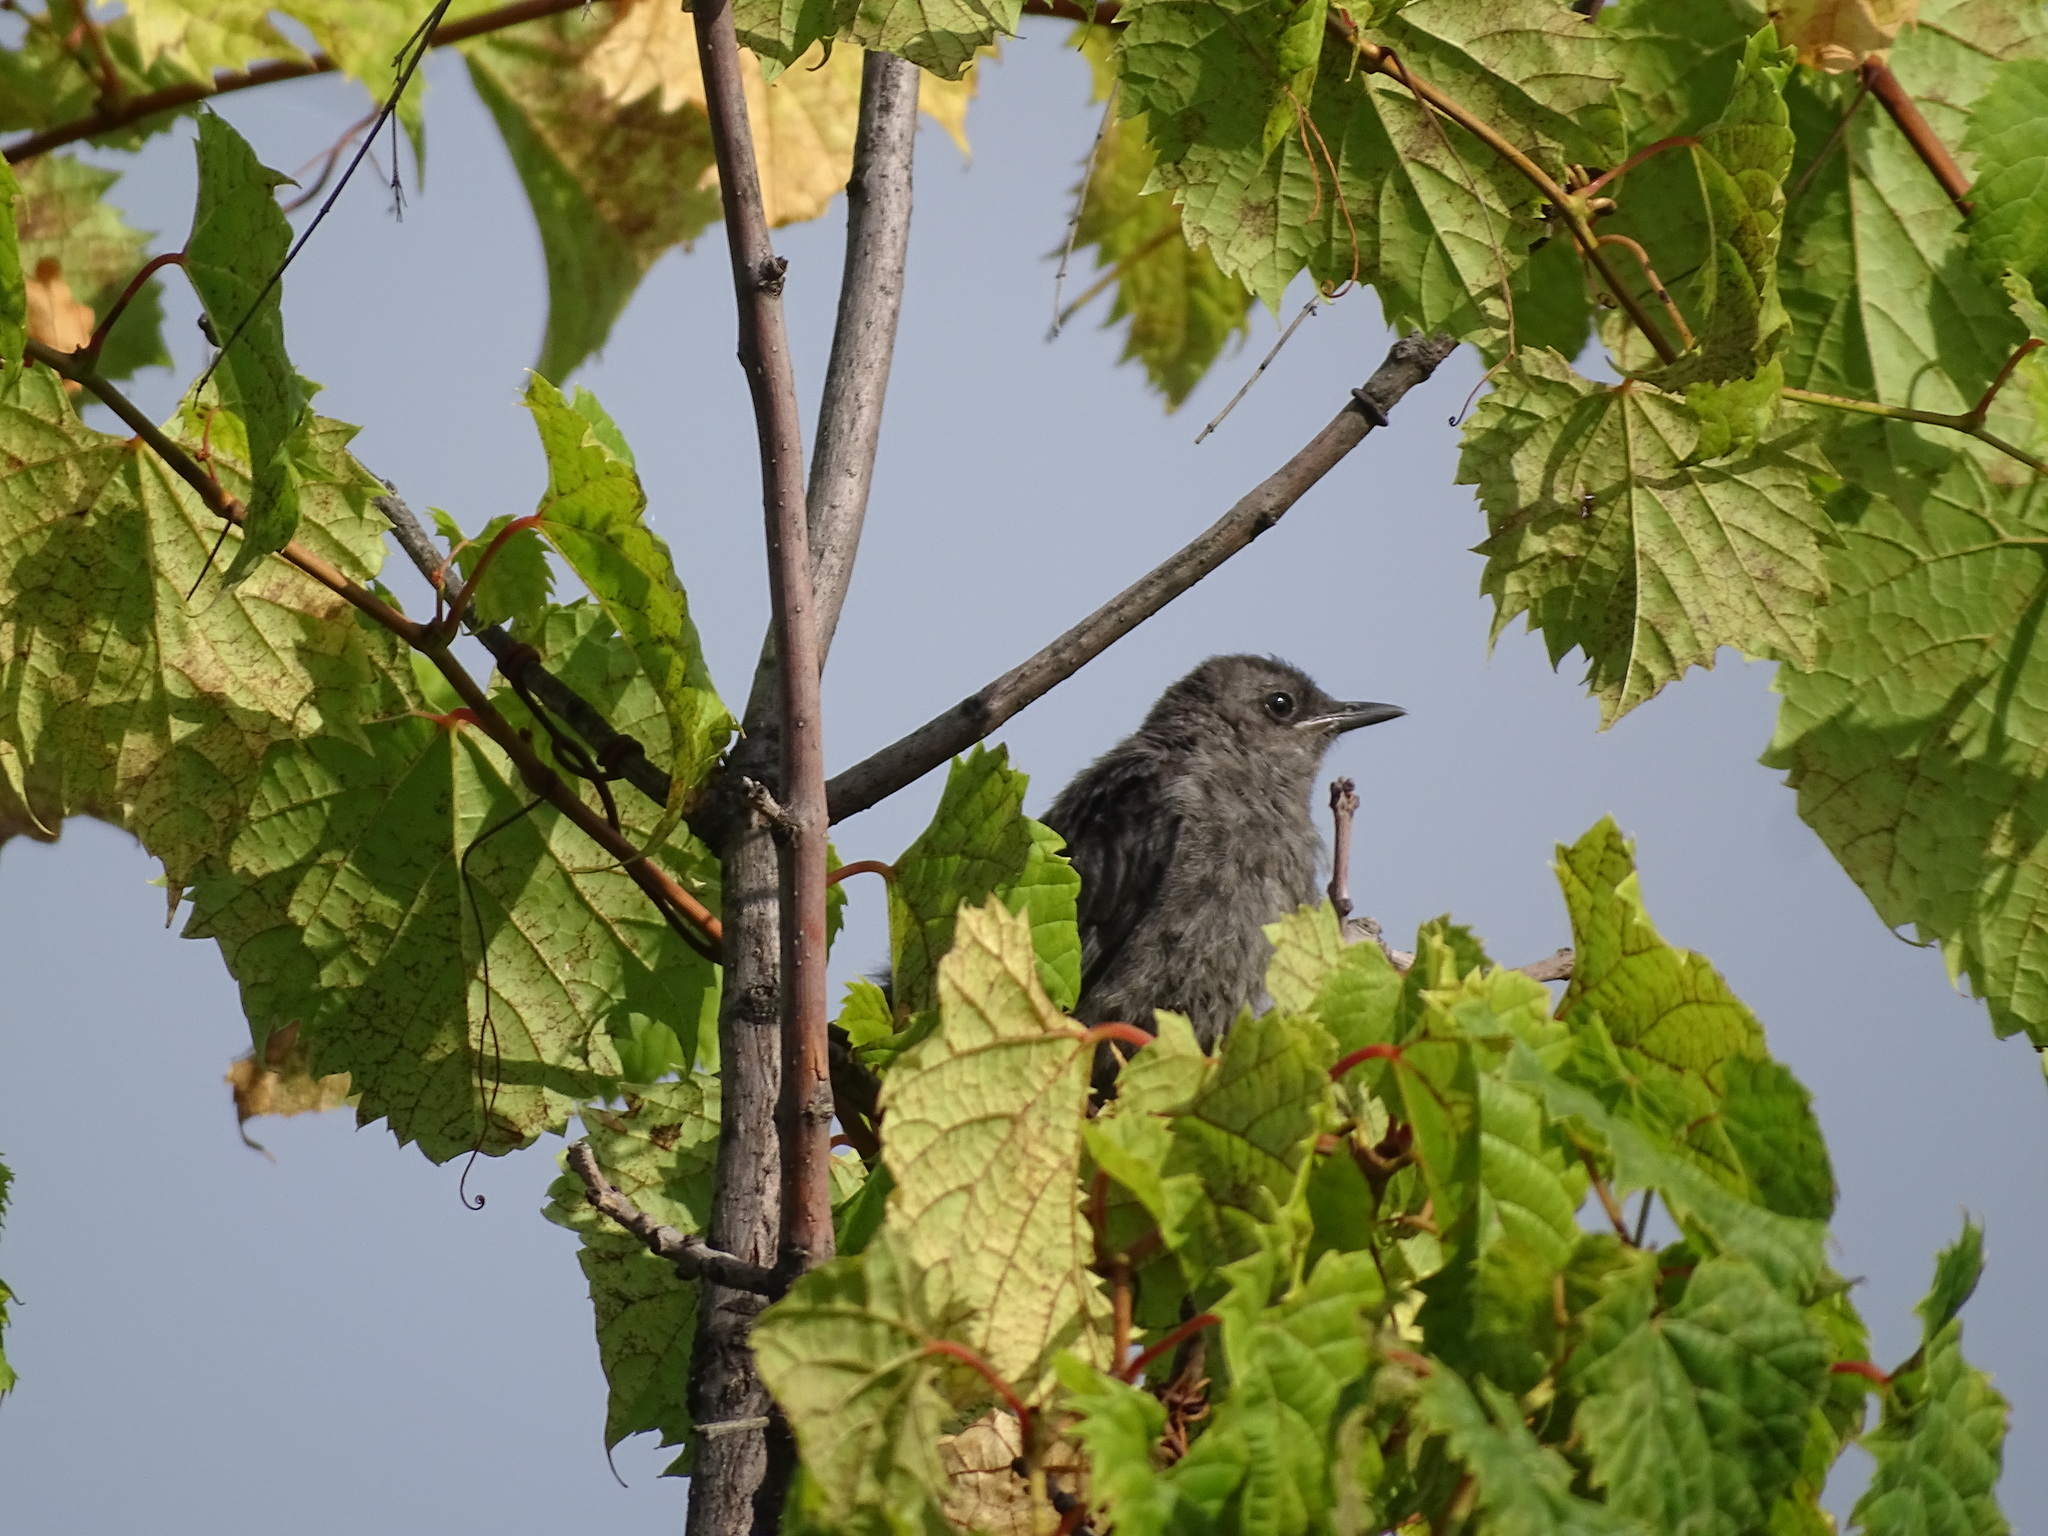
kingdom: Animalia
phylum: Chordata
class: Aves
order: Passeriformes
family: Mimidae
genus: Dumetella
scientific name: Dumetella carolinensis
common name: Gray catbird
